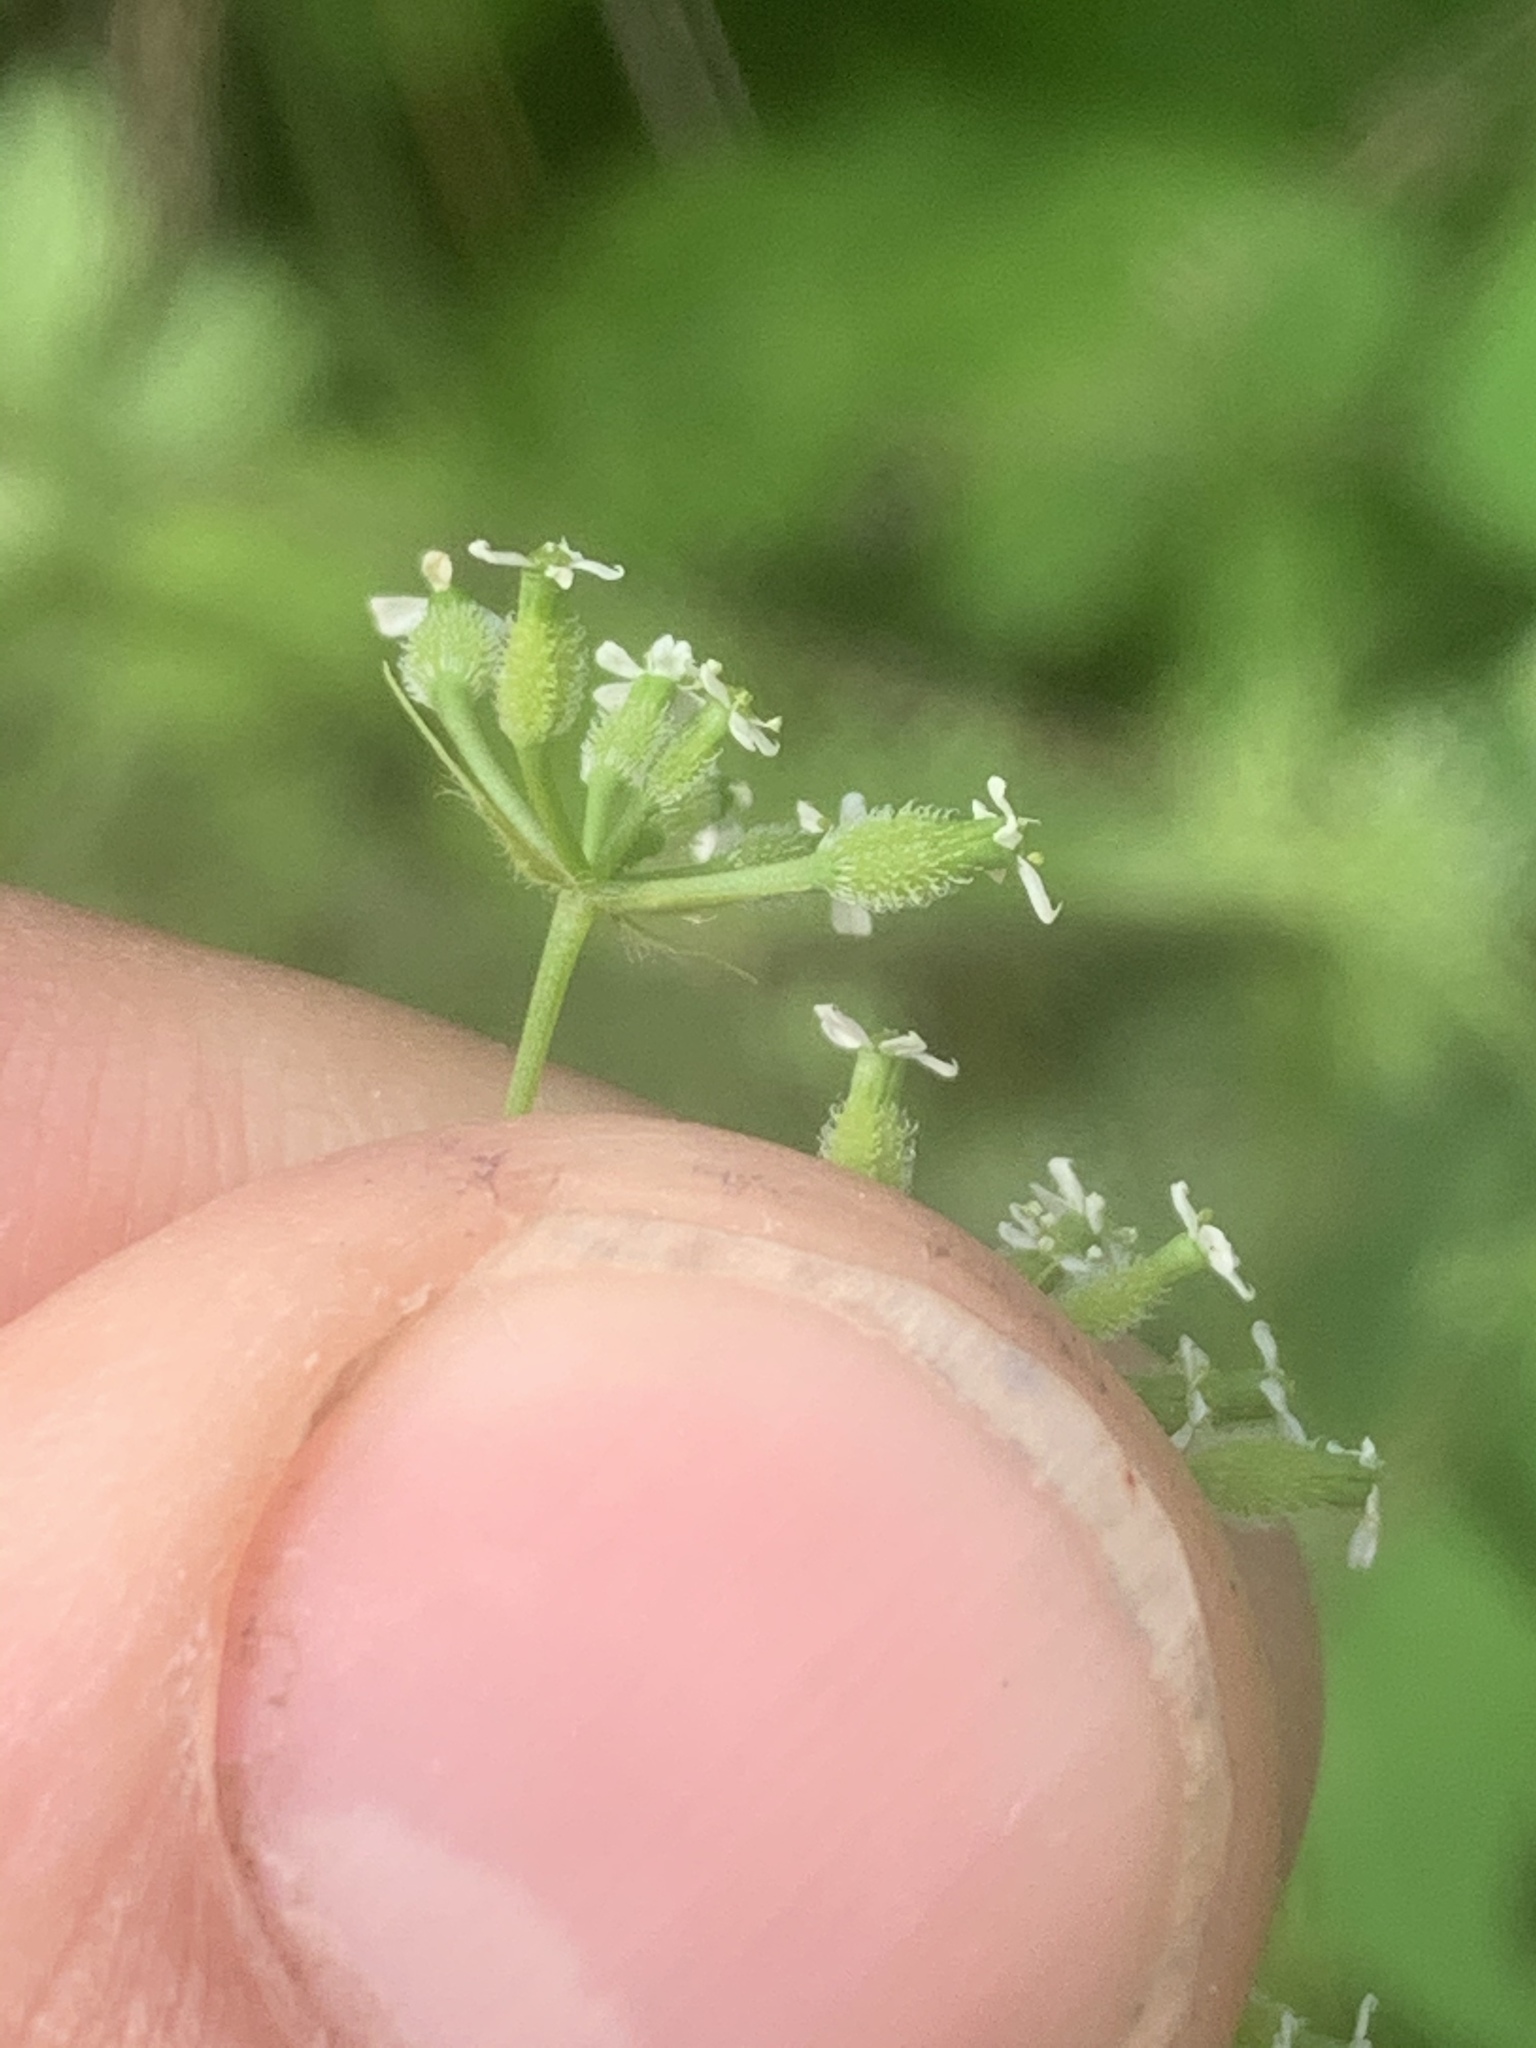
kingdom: Plantae
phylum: Tracheophyta
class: Magnoliopsida
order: Apiales
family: Apiaceae
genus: Anthriscus
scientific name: Anthriscus caucalis
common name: Bur chervil
